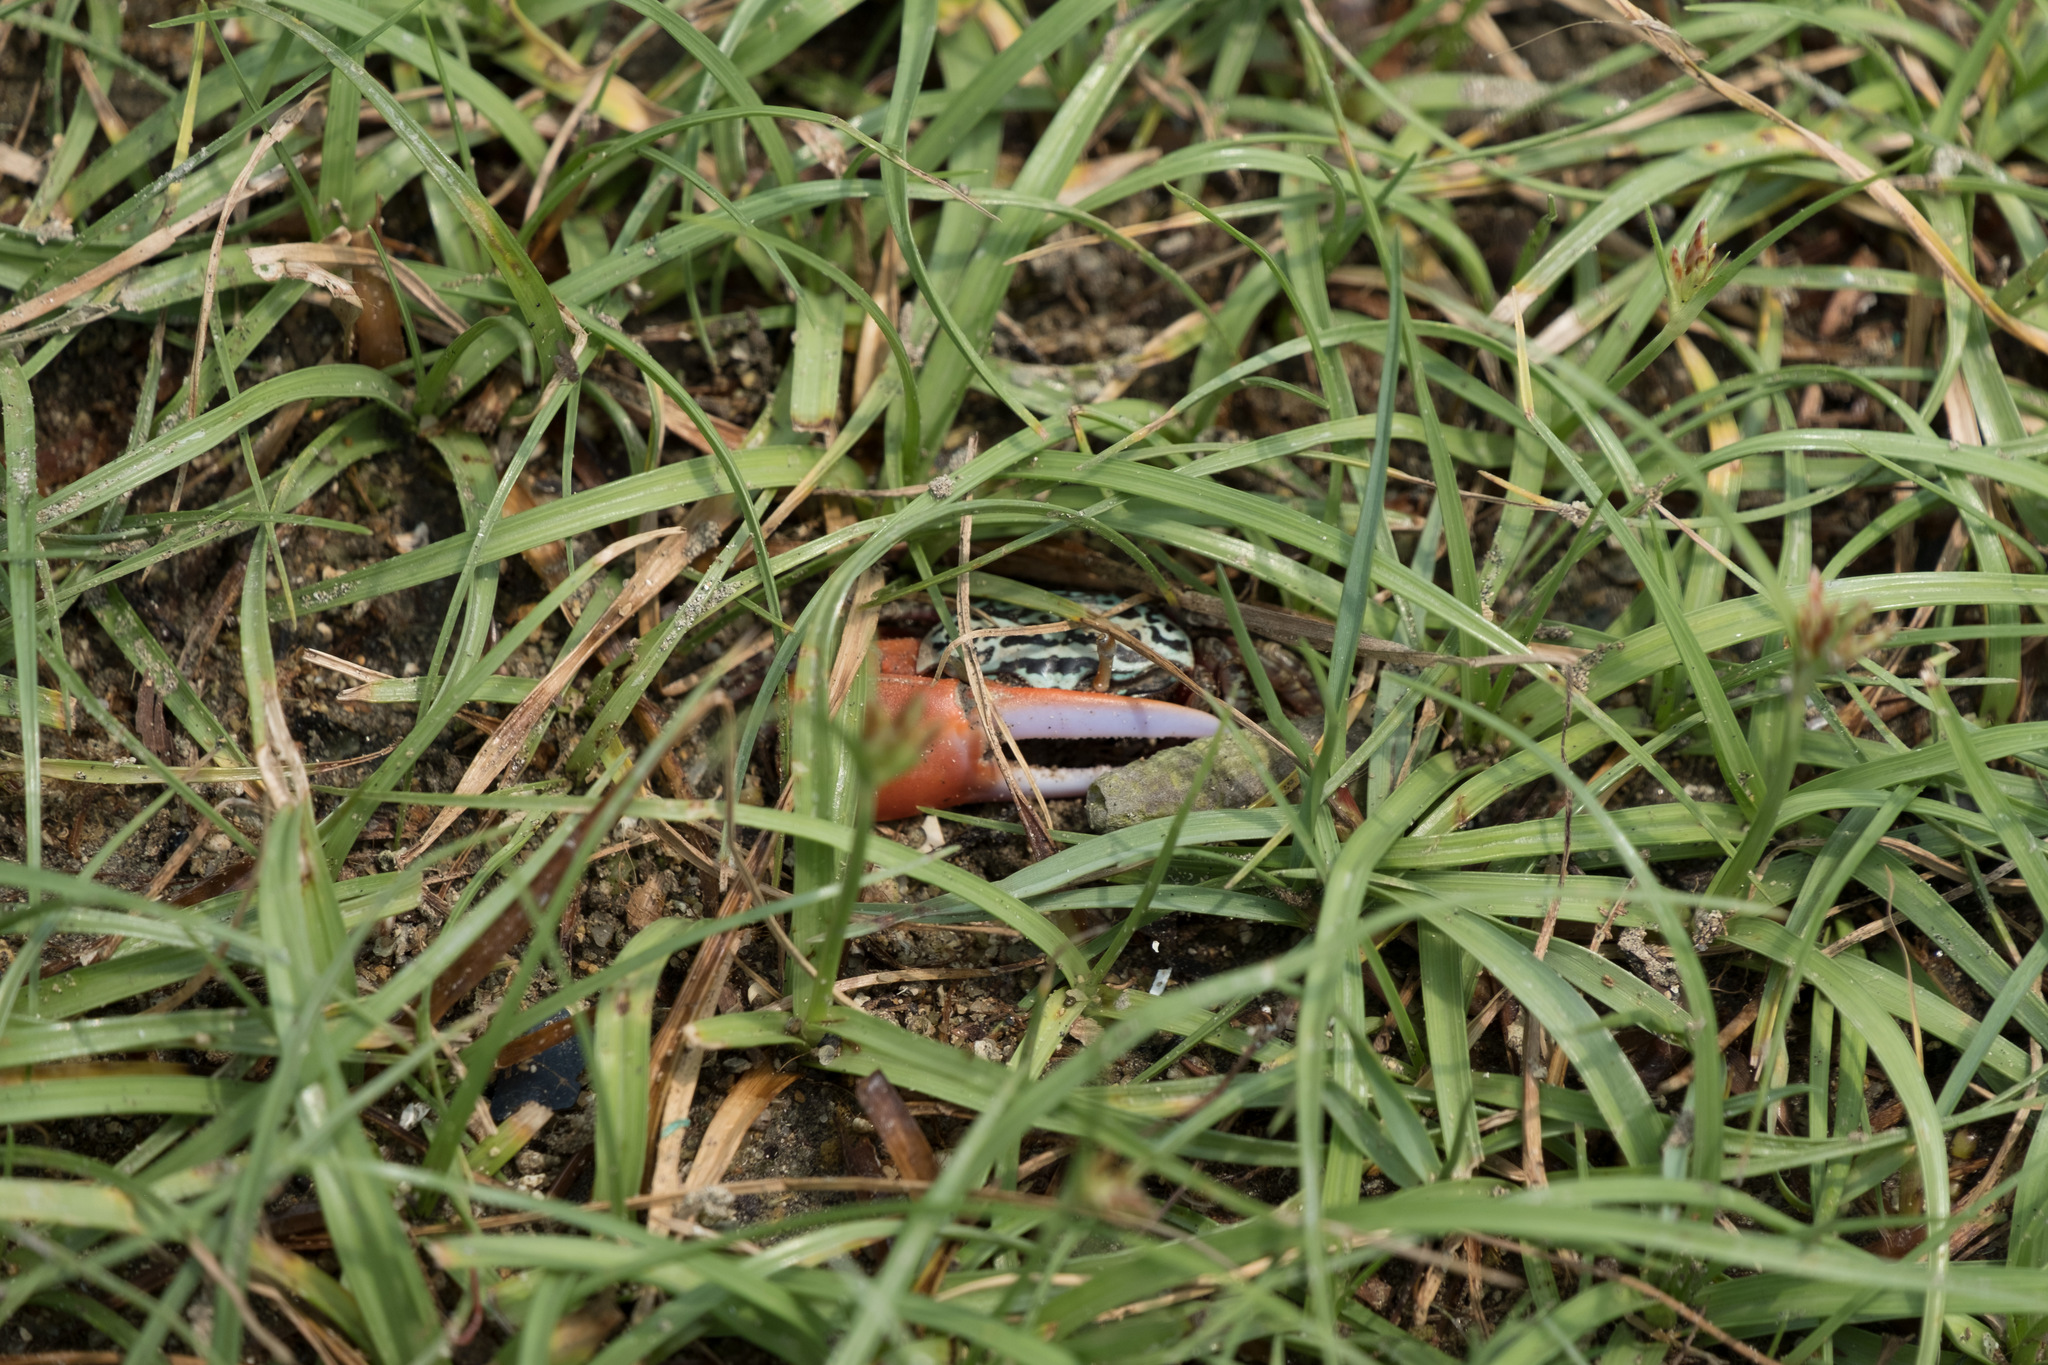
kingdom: Animalia
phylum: Arthropoda
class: Malacostraca
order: Decapoda
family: Ocypodidae
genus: Paraleptuca
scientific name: Paraleptuca splendida
